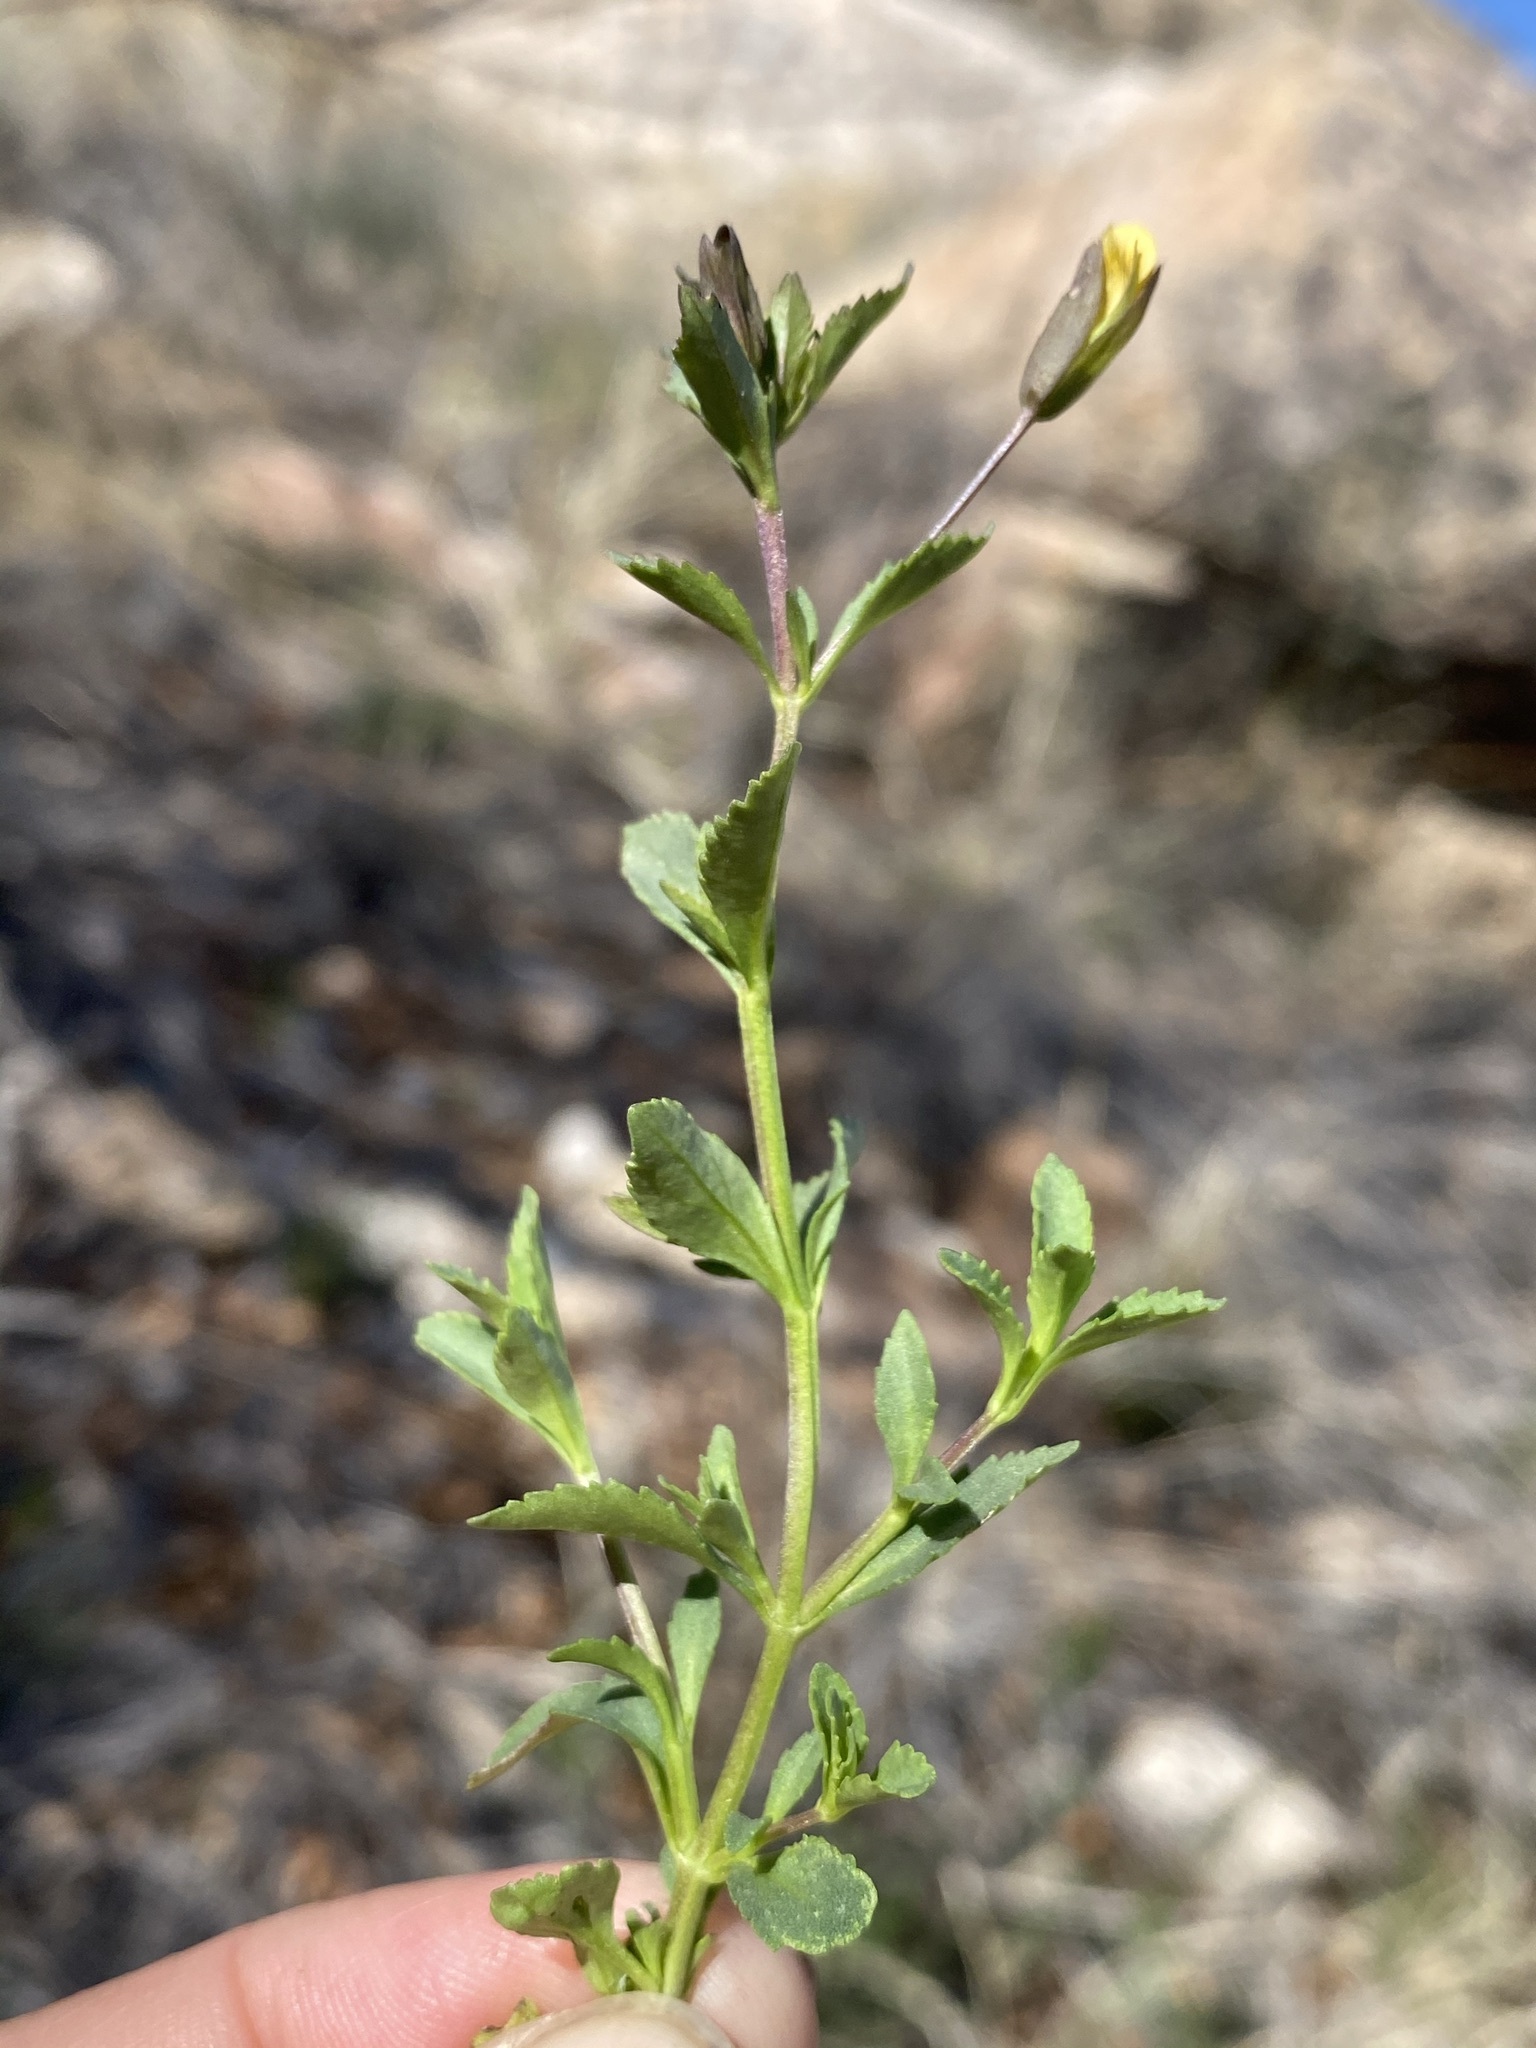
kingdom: Plantae
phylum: Tracheophyta
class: Magnoliopsida
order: Lamiales
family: Plantaginaceae
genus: Mecardonia
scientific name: Mecardonia procumbens
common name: Baby jump-up
